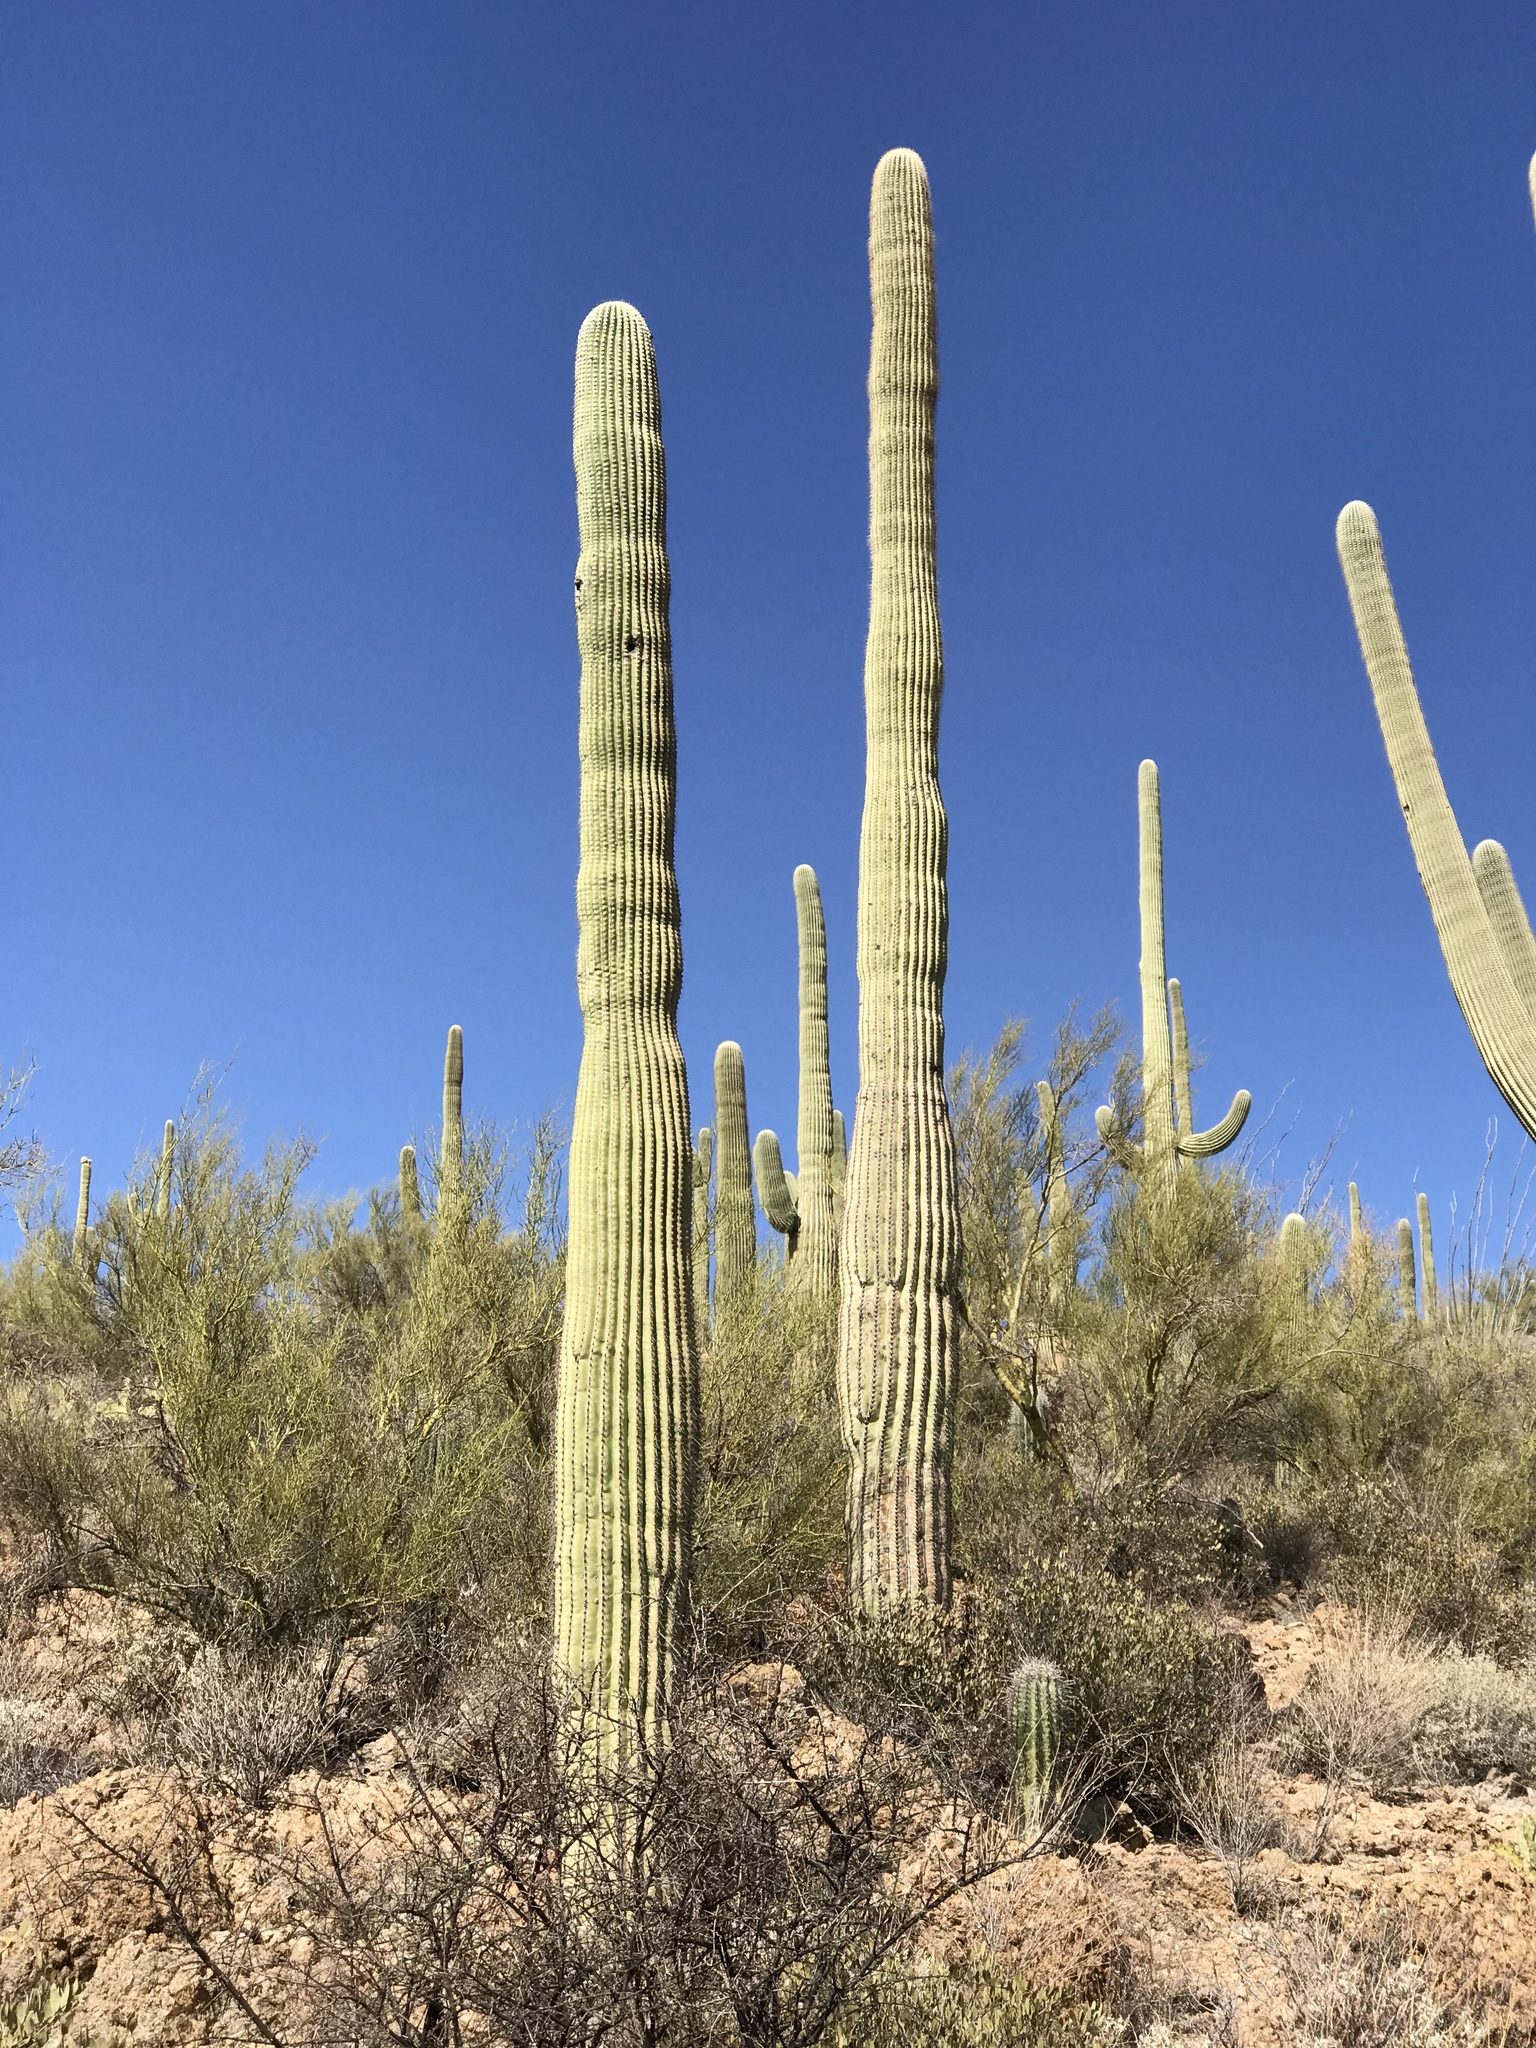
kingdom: Plantae
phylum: Tracheophyta
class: Magnoliopsida
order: Caryophyllales
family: Cactaceae
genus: Carnegiea
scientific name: Carnegiea gigantea
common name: Saguaro
